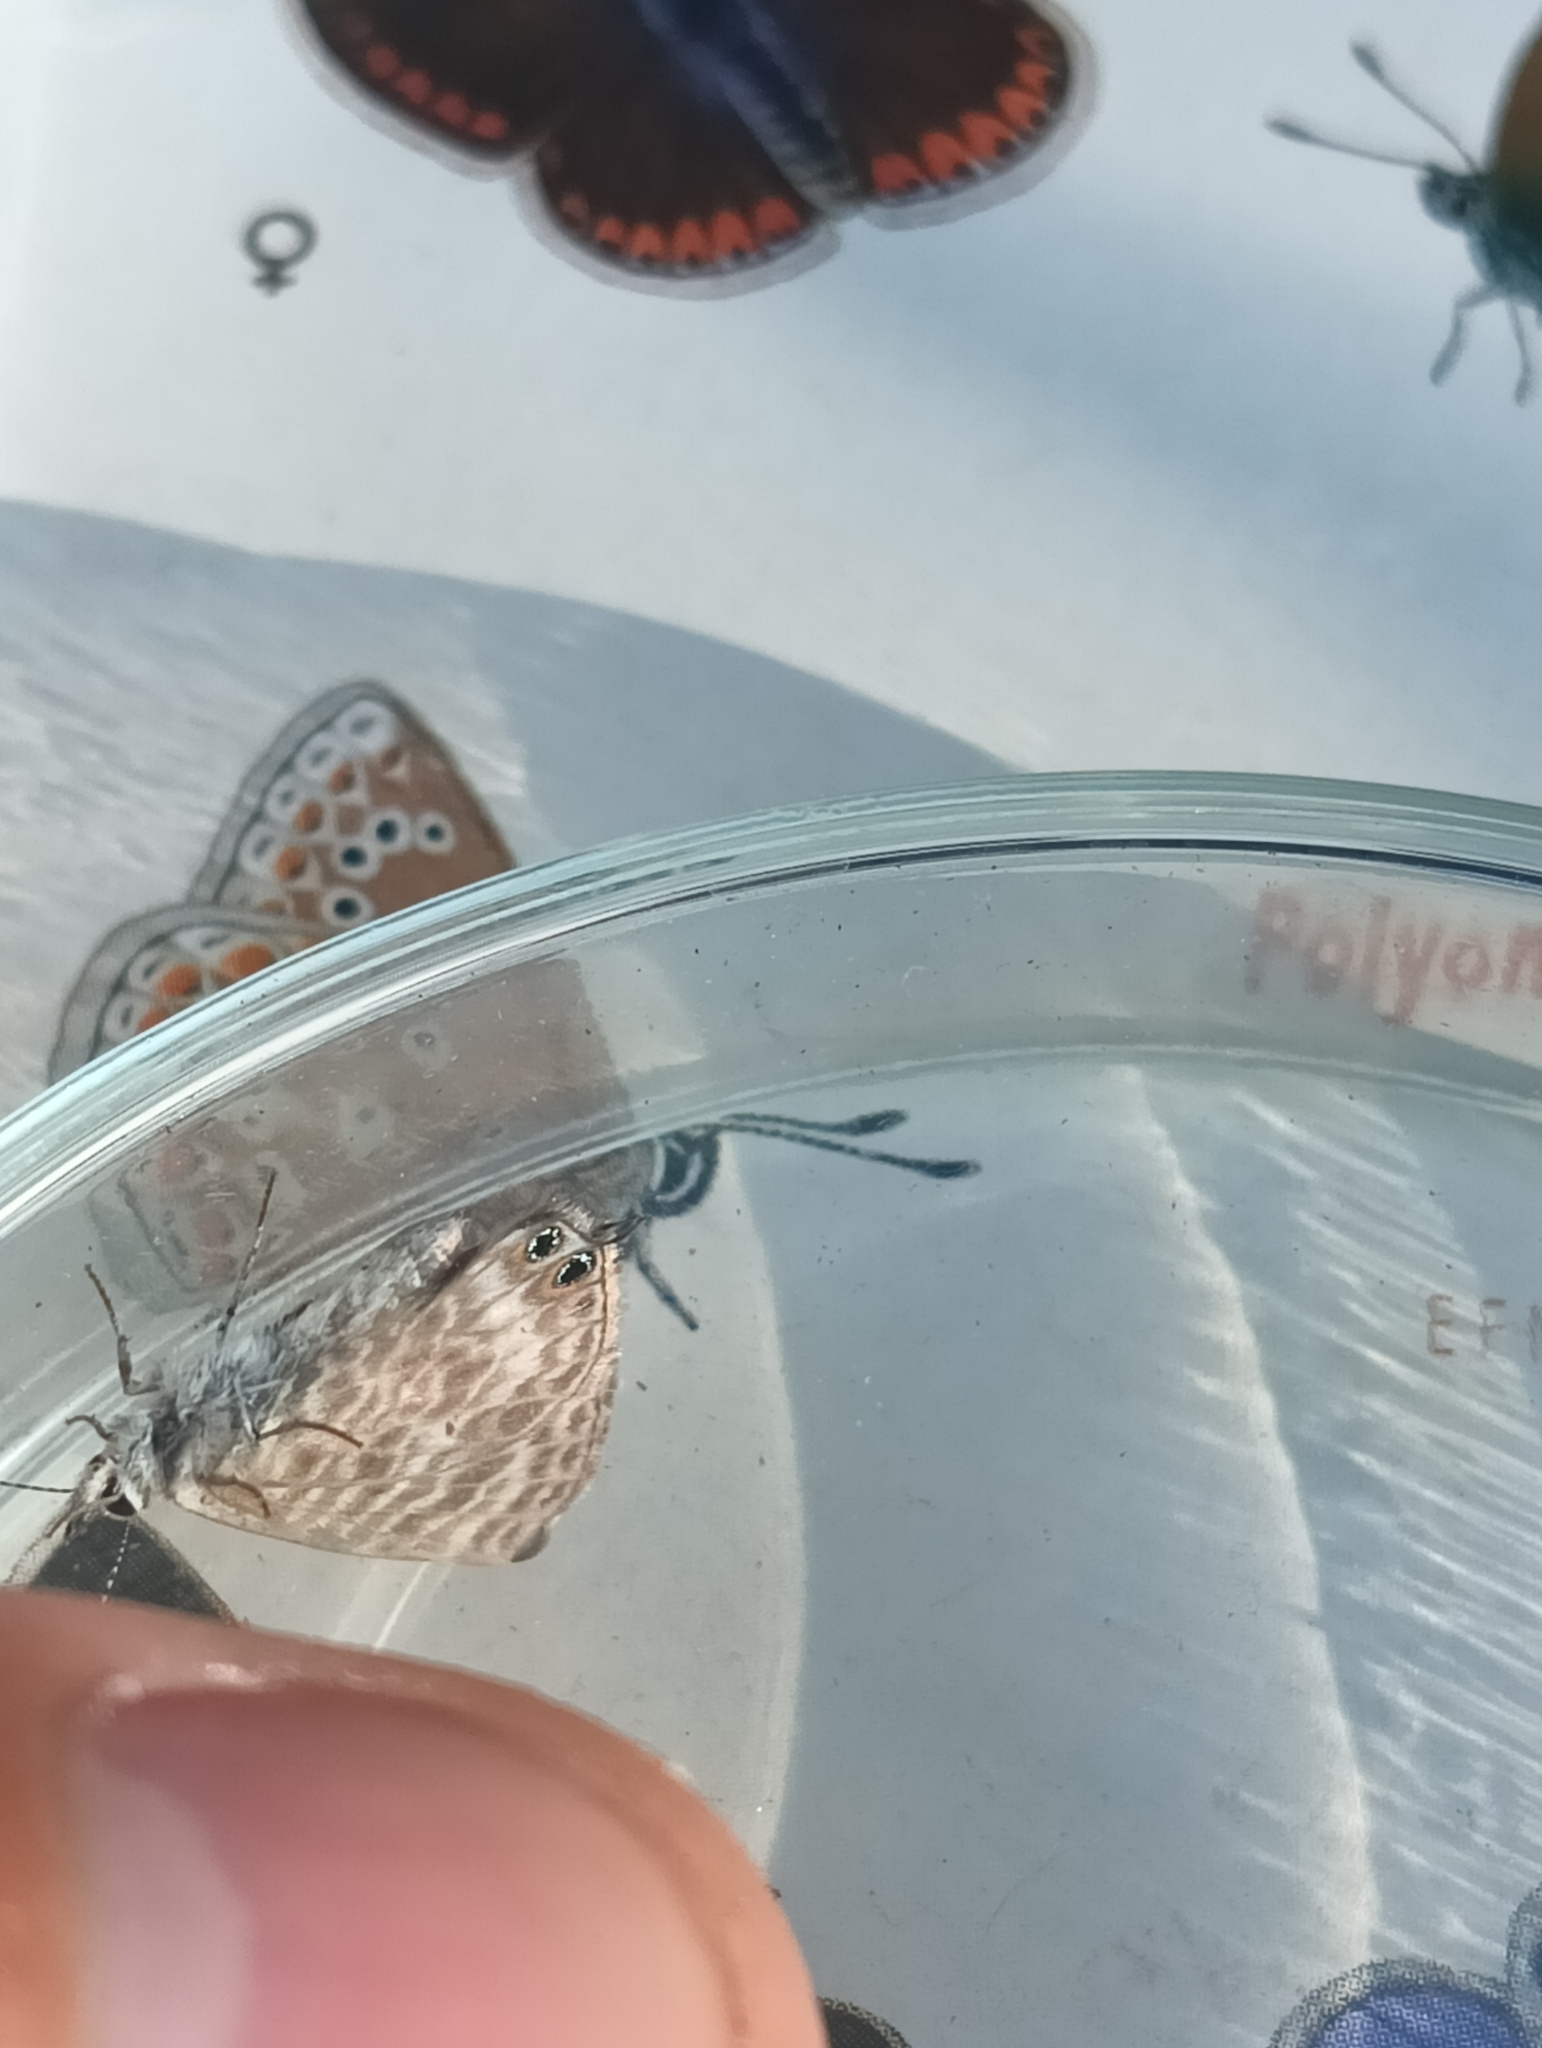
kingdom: Animalia
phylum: Arthropoda
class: Insecta
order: Lepidoptera
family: Lycaenidae
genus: Leptotes
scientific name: Leptotes pirithous
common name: Lang's short-tailed blue
